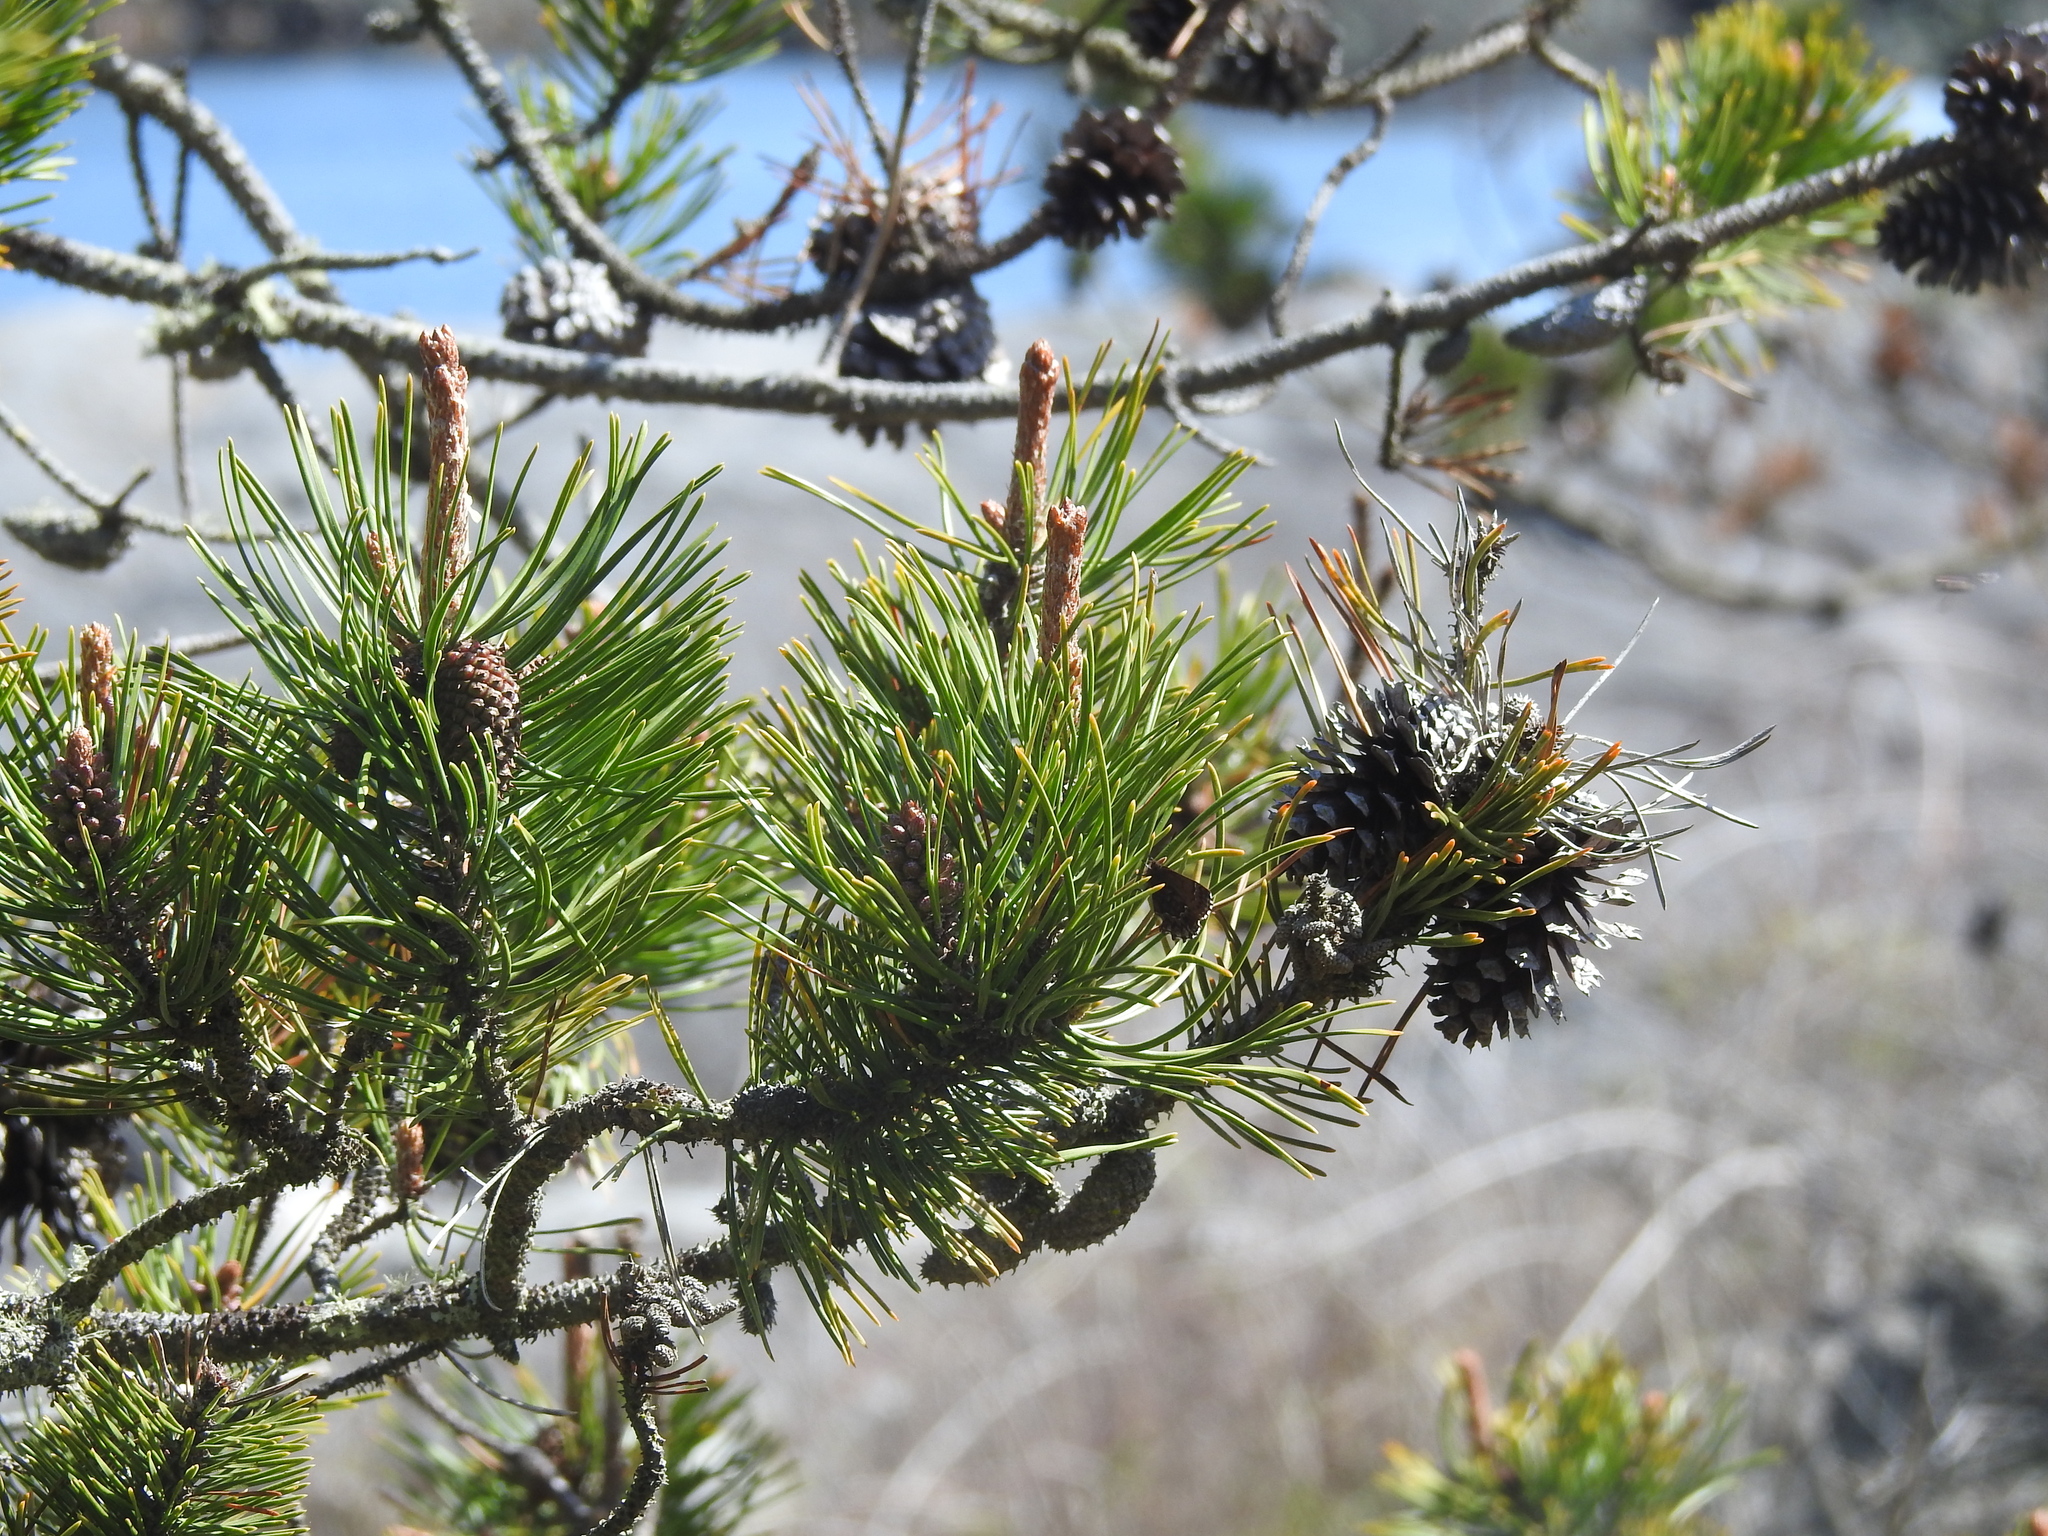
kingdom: Plantae
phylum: Tracheophyta
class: Pinopsida
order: Pinales
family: Pinaceae
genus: Pinus
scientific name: Pinus contorta
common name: Lodgepole pine
